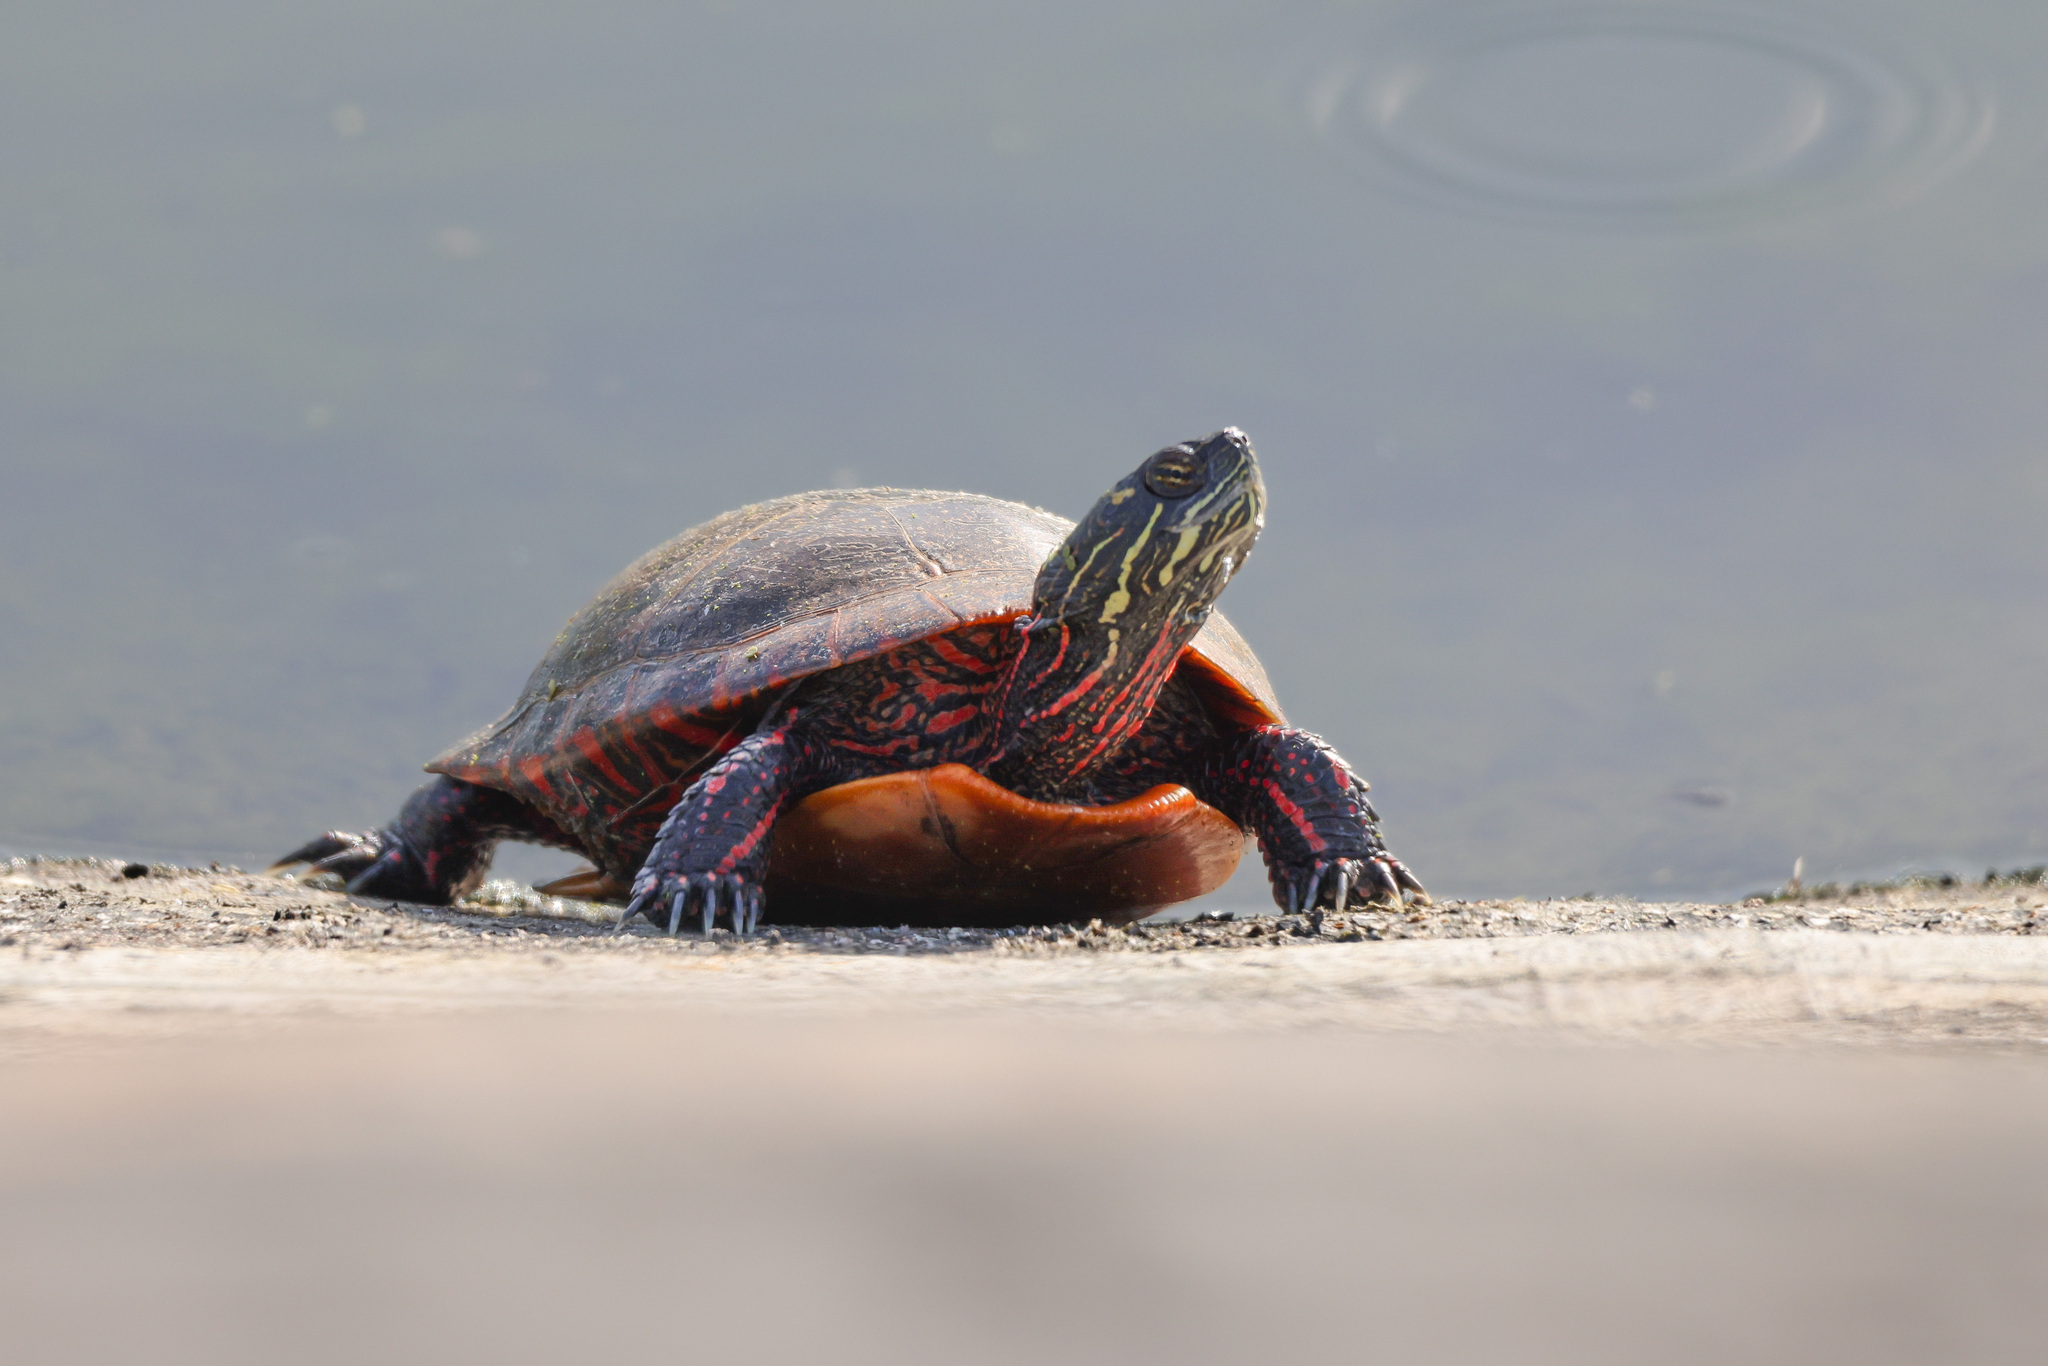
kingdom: Animalia
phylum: Chordata
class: Testudines
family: Emydidae
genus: Chrysemys
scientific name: Chrysemys picta
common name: Painted turtle
